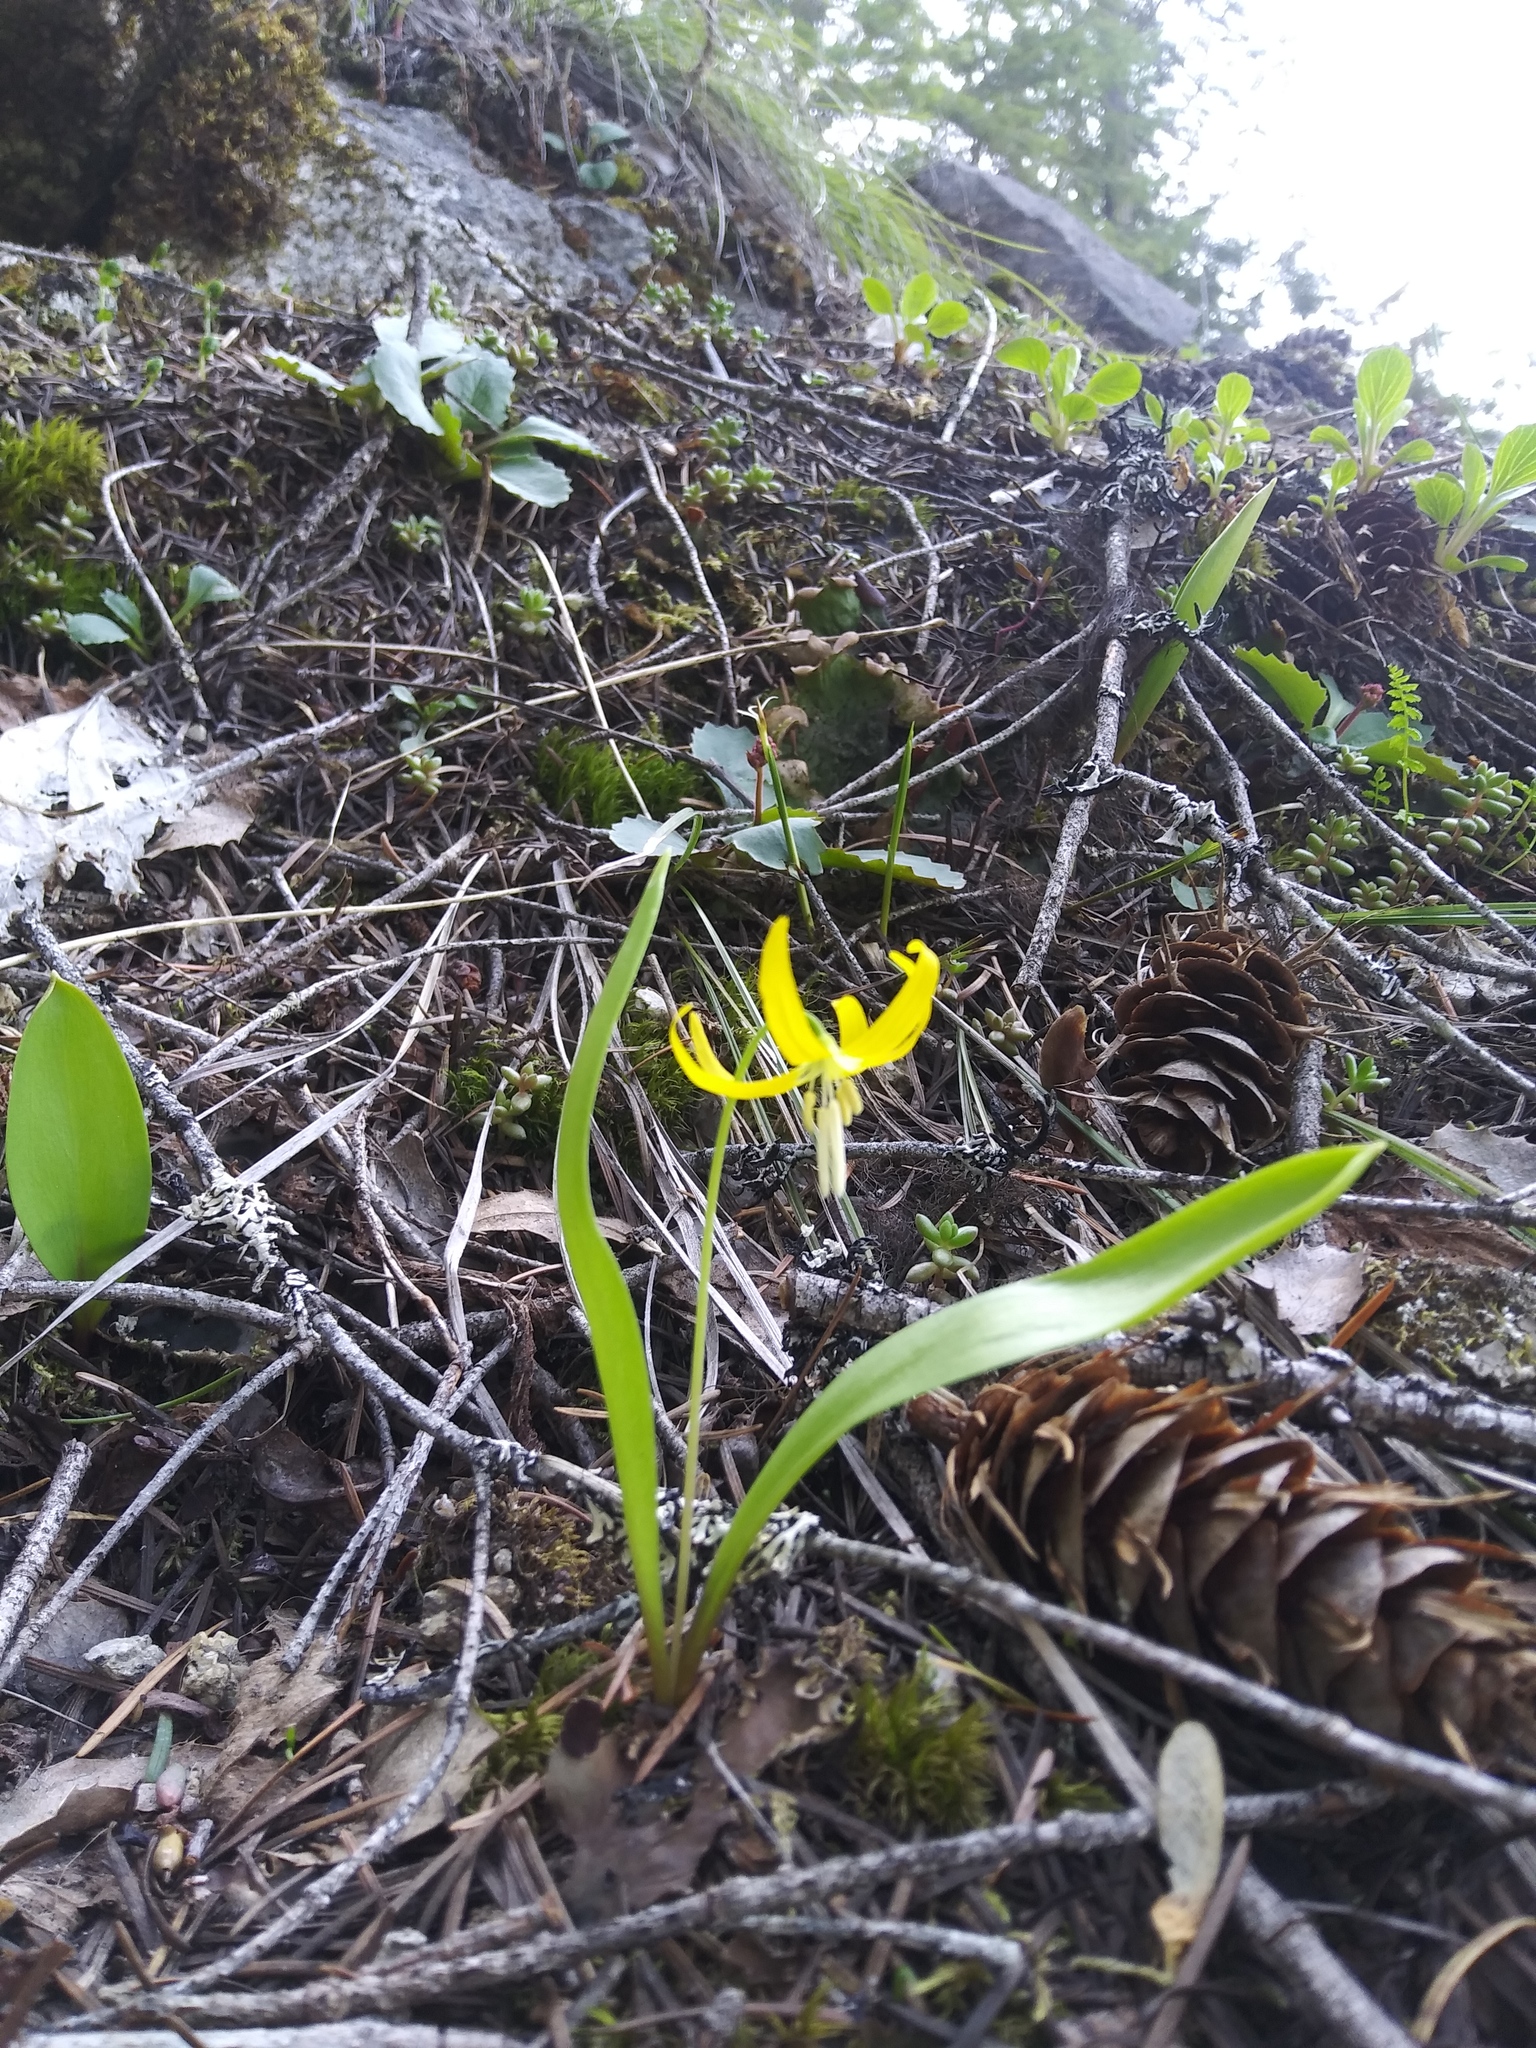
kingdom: Plantae
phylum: Tracheophyta
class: Liliopsida
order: Liliales
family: Liliaceae
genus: Erythronium
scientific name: Erythronium grandiflorum
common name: Avalanche-lily
